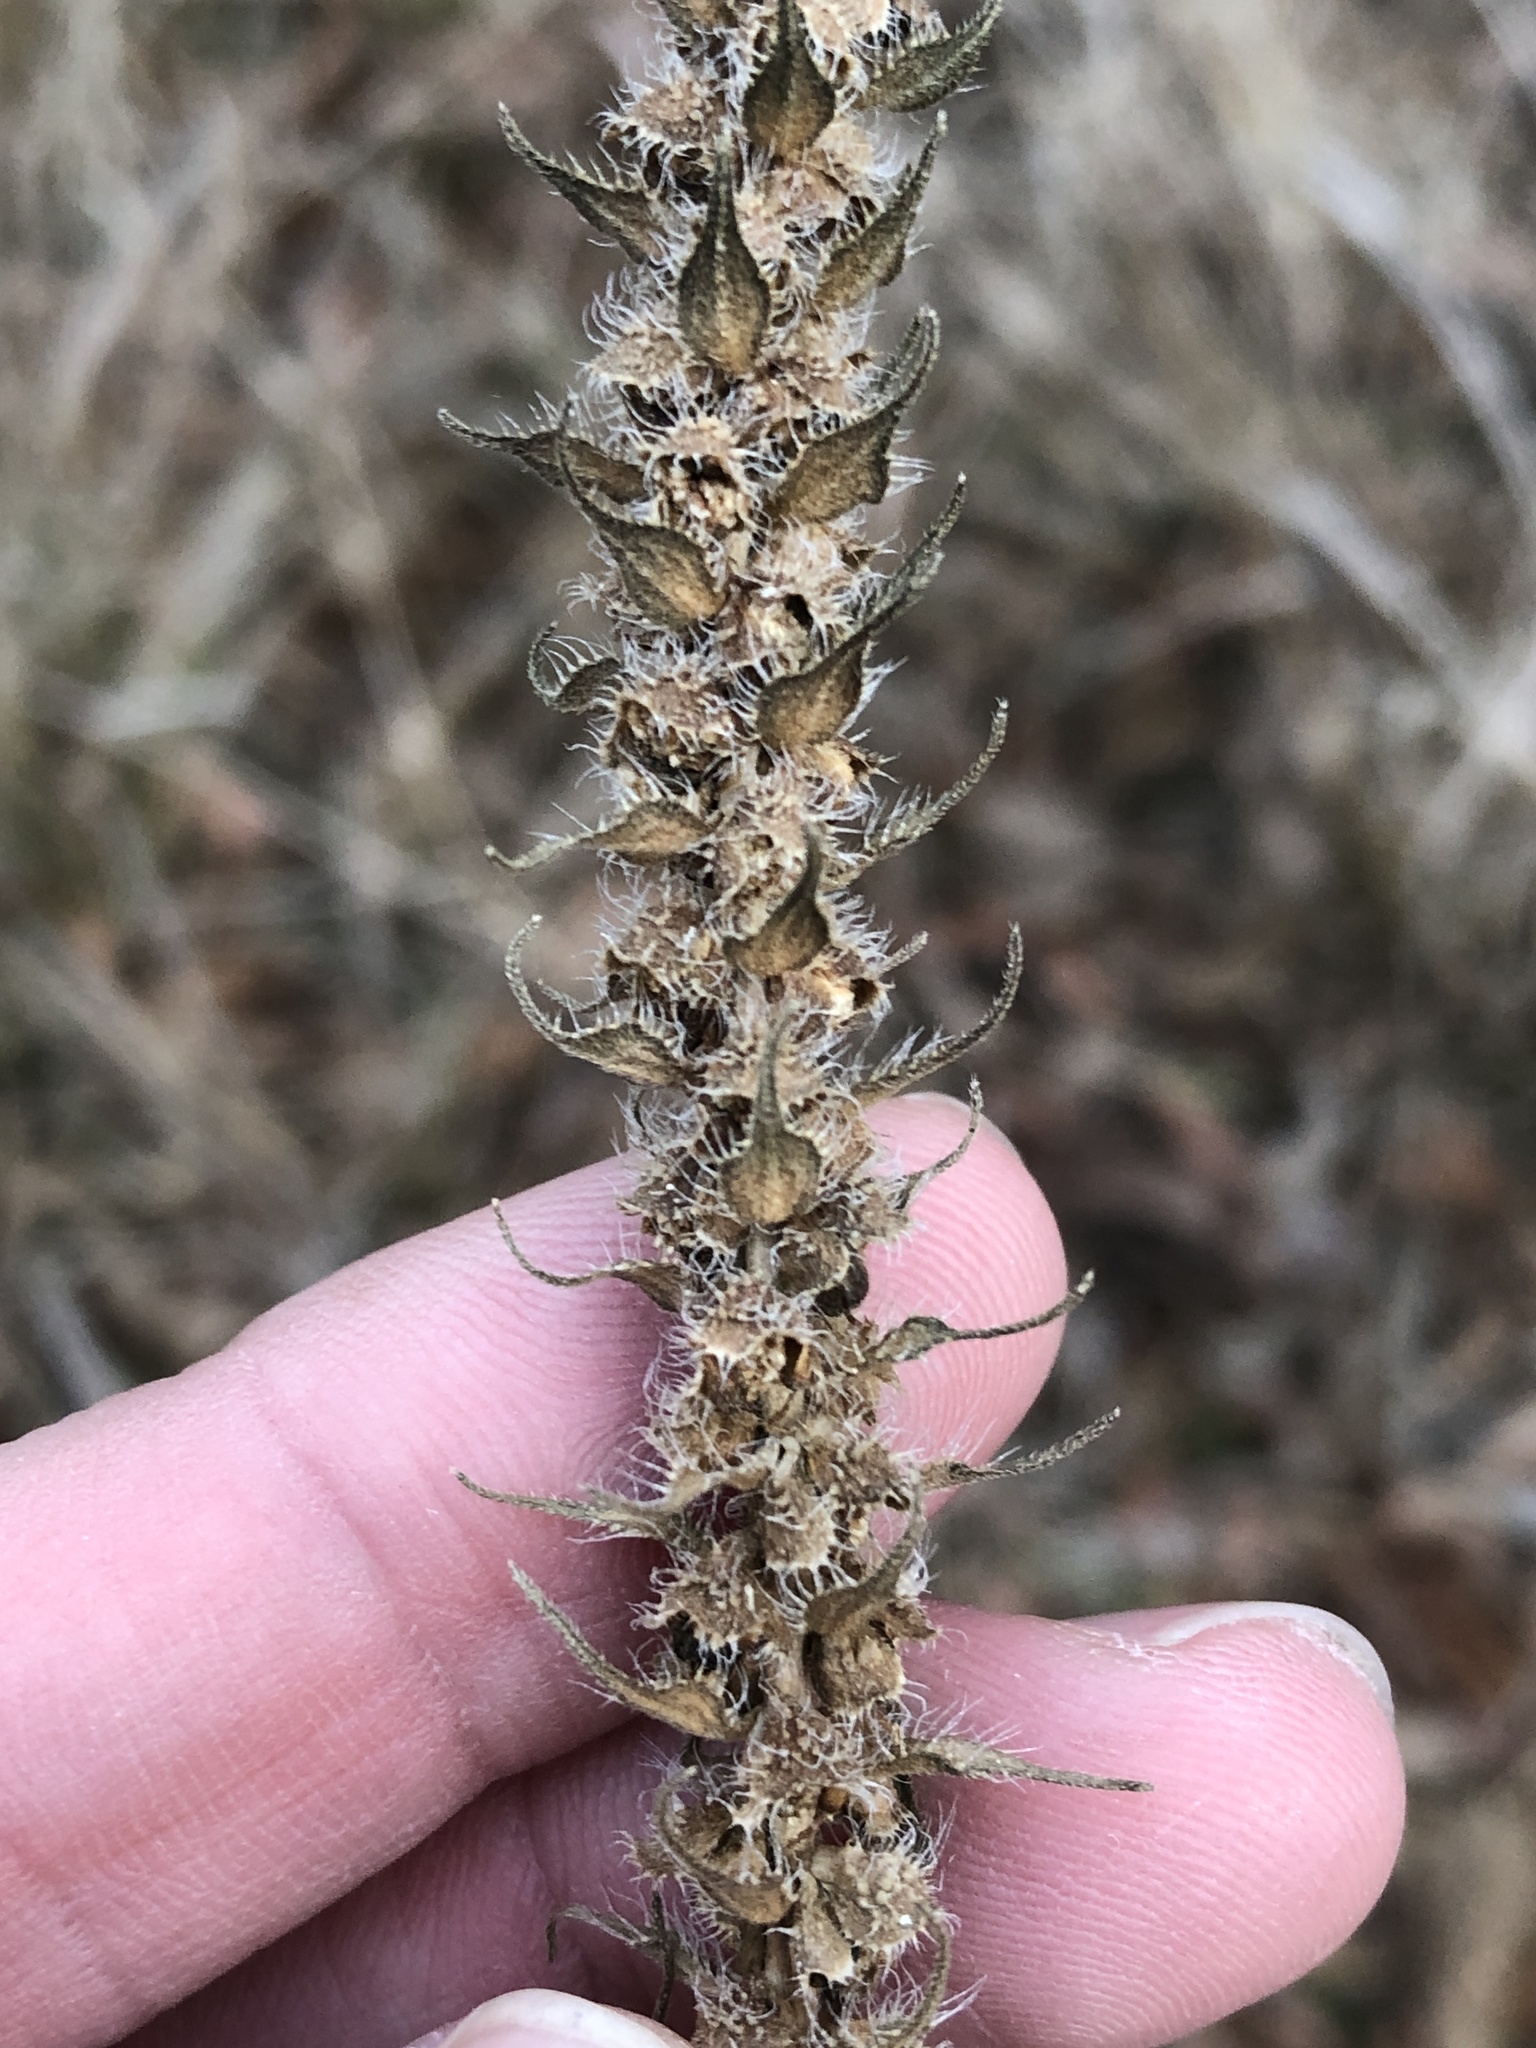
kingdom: Plantae
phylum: Tracheophyta
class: Magnoliopsida
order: Asterales
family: Asteraceae
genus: Iva
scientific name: Iva annua
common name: Marsh-elder
